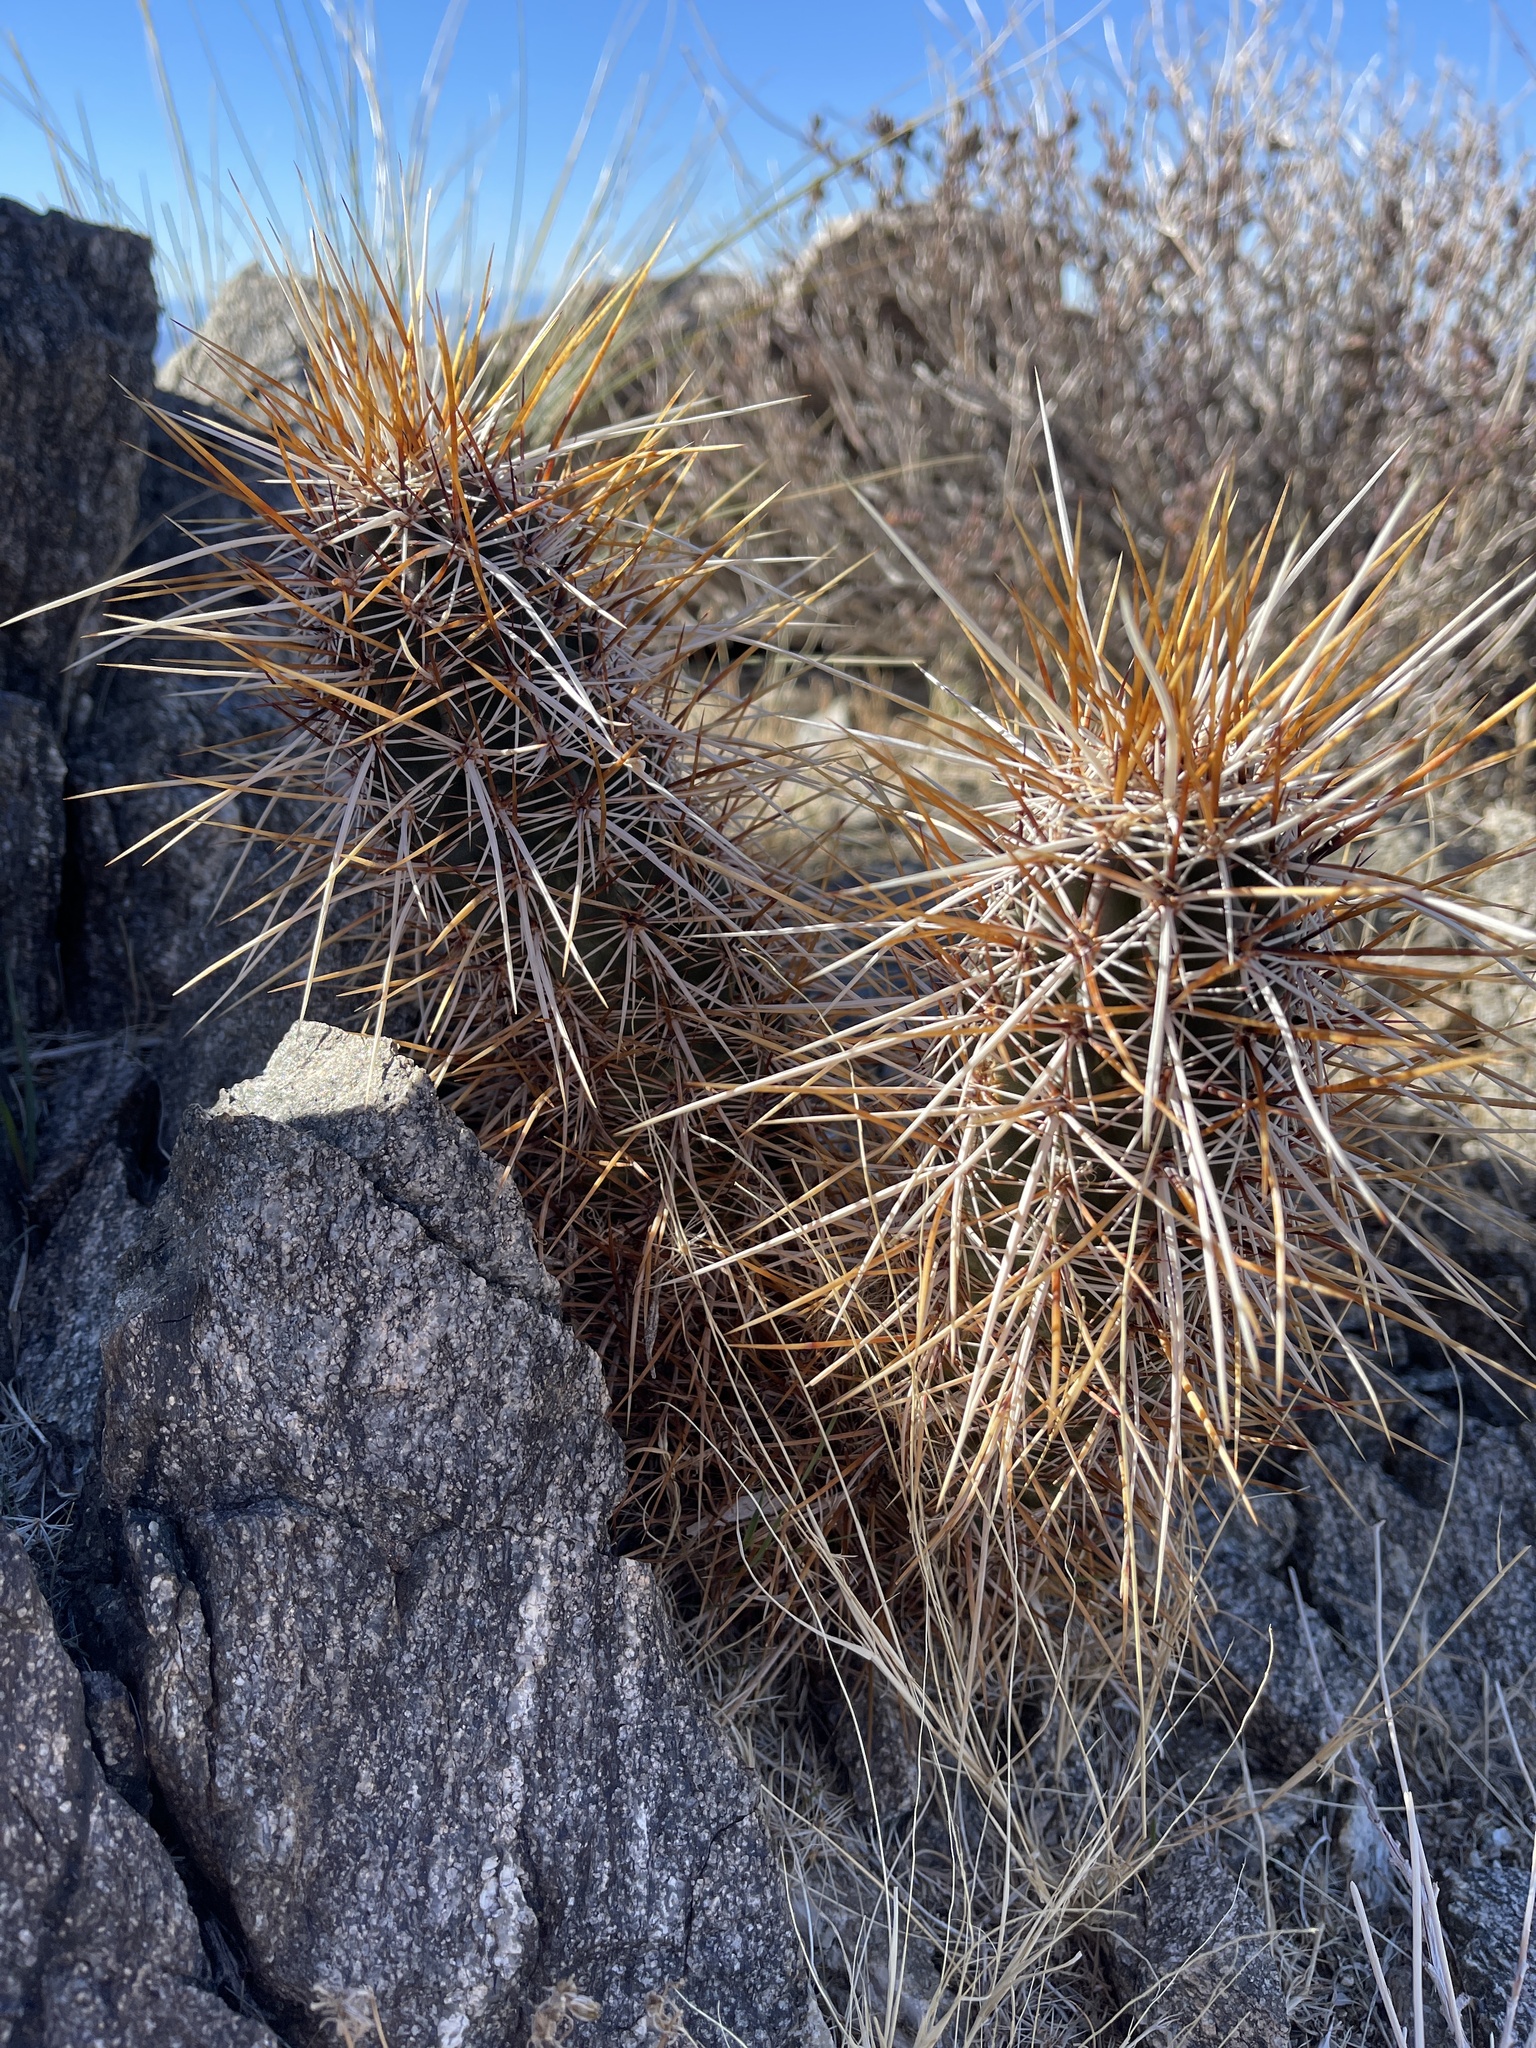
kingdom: Plantae
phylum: Tracheophyta
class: Magnoliopsida
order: Caryophyllales
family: Cactaceae
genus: Echinocereus
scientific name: Echinocereus engelmannii
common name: Engelmann's hedgehog cactus
